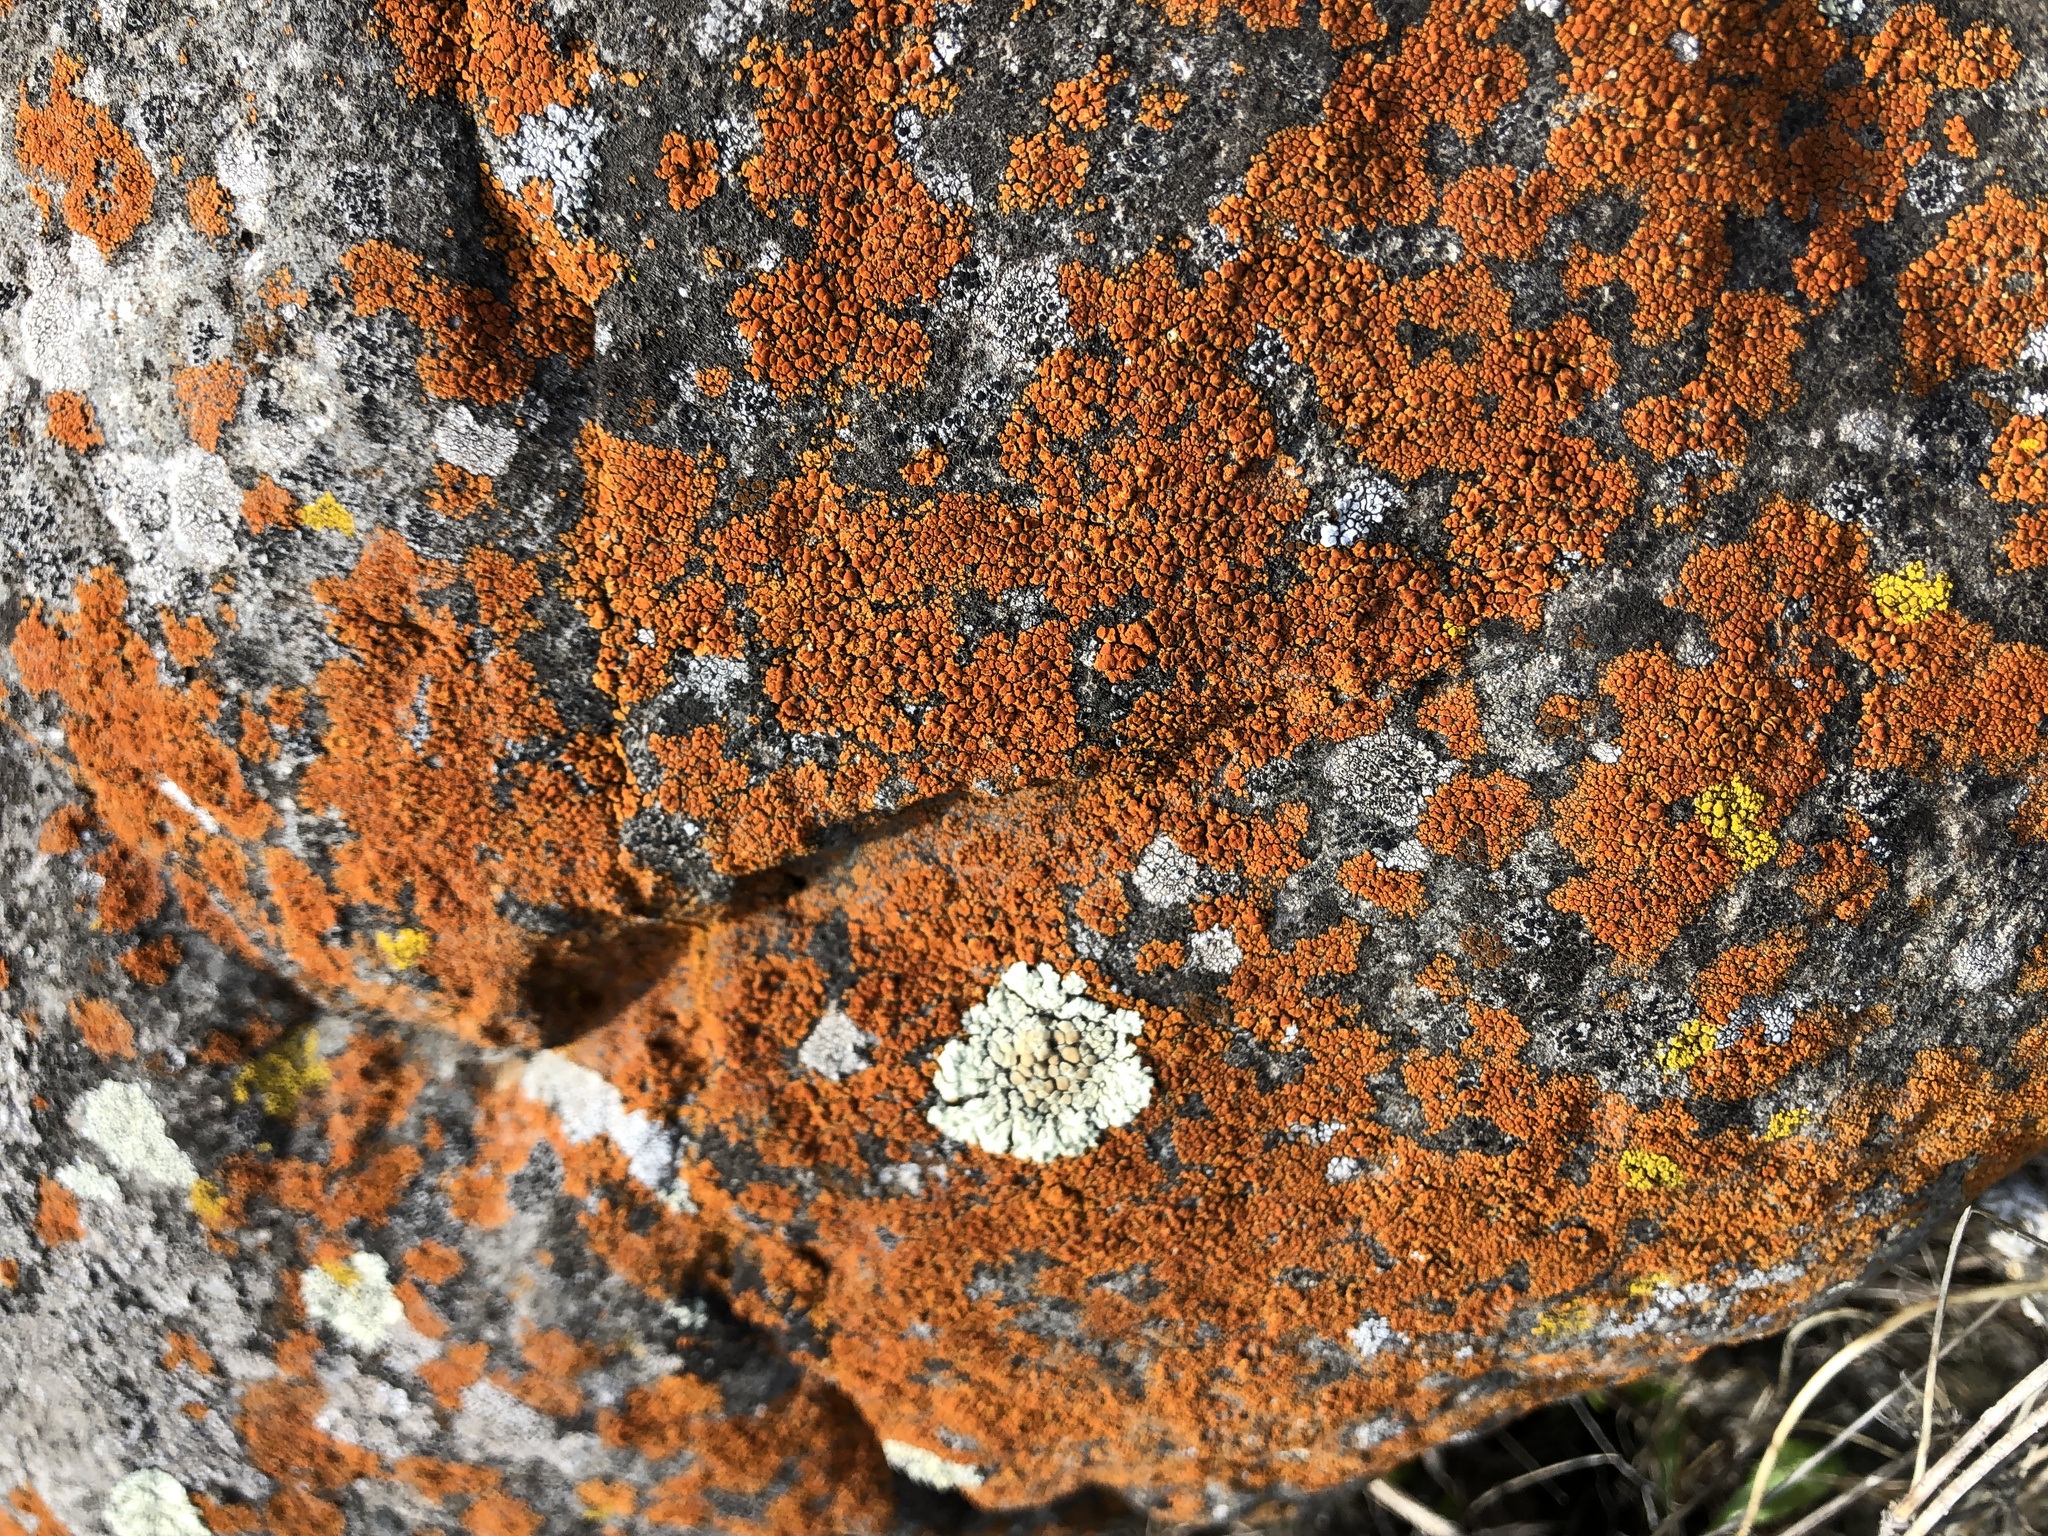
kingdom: Fungi
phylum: Ascomycota
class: Lecanoromycetes
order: Teloschistales
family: Teloschistaceae
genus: Squamulea
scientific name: Squamulea subsoluta
